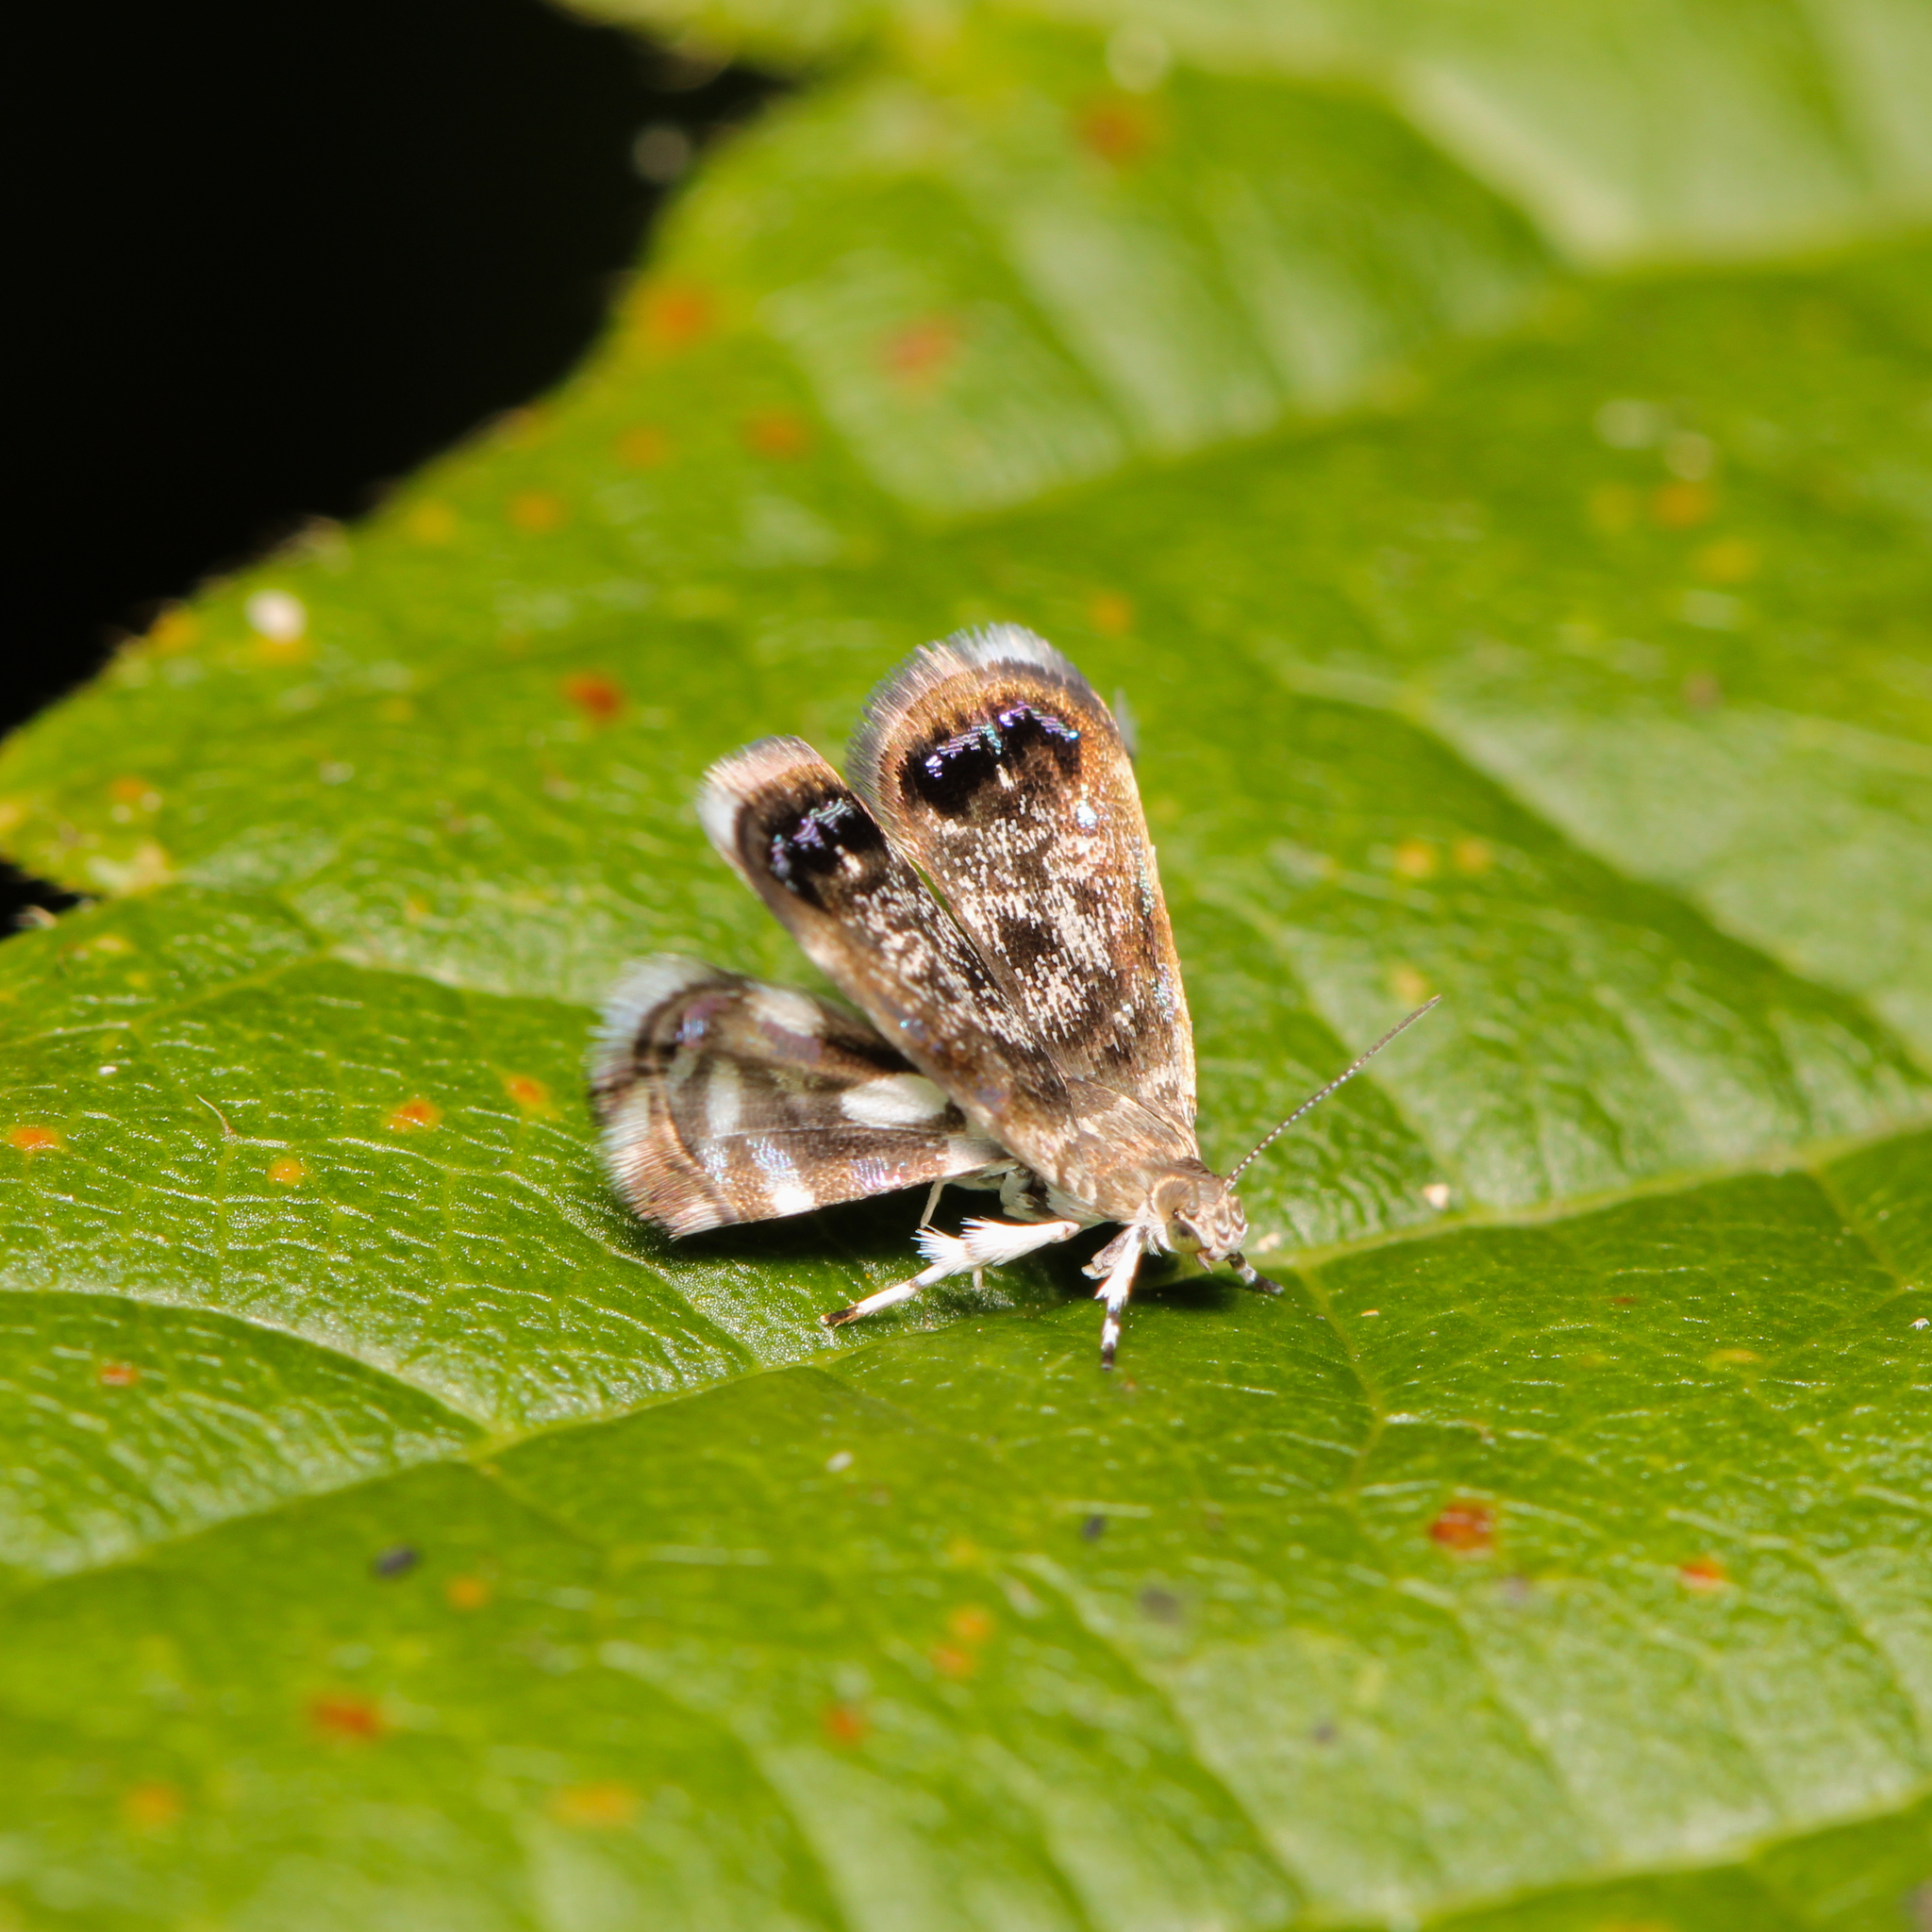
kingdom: Animalia
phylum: Arthropoda
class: Insecta
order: Lepidoptera
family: Choreutidae
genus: Brenthia
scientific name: Brenthia pavonacella
